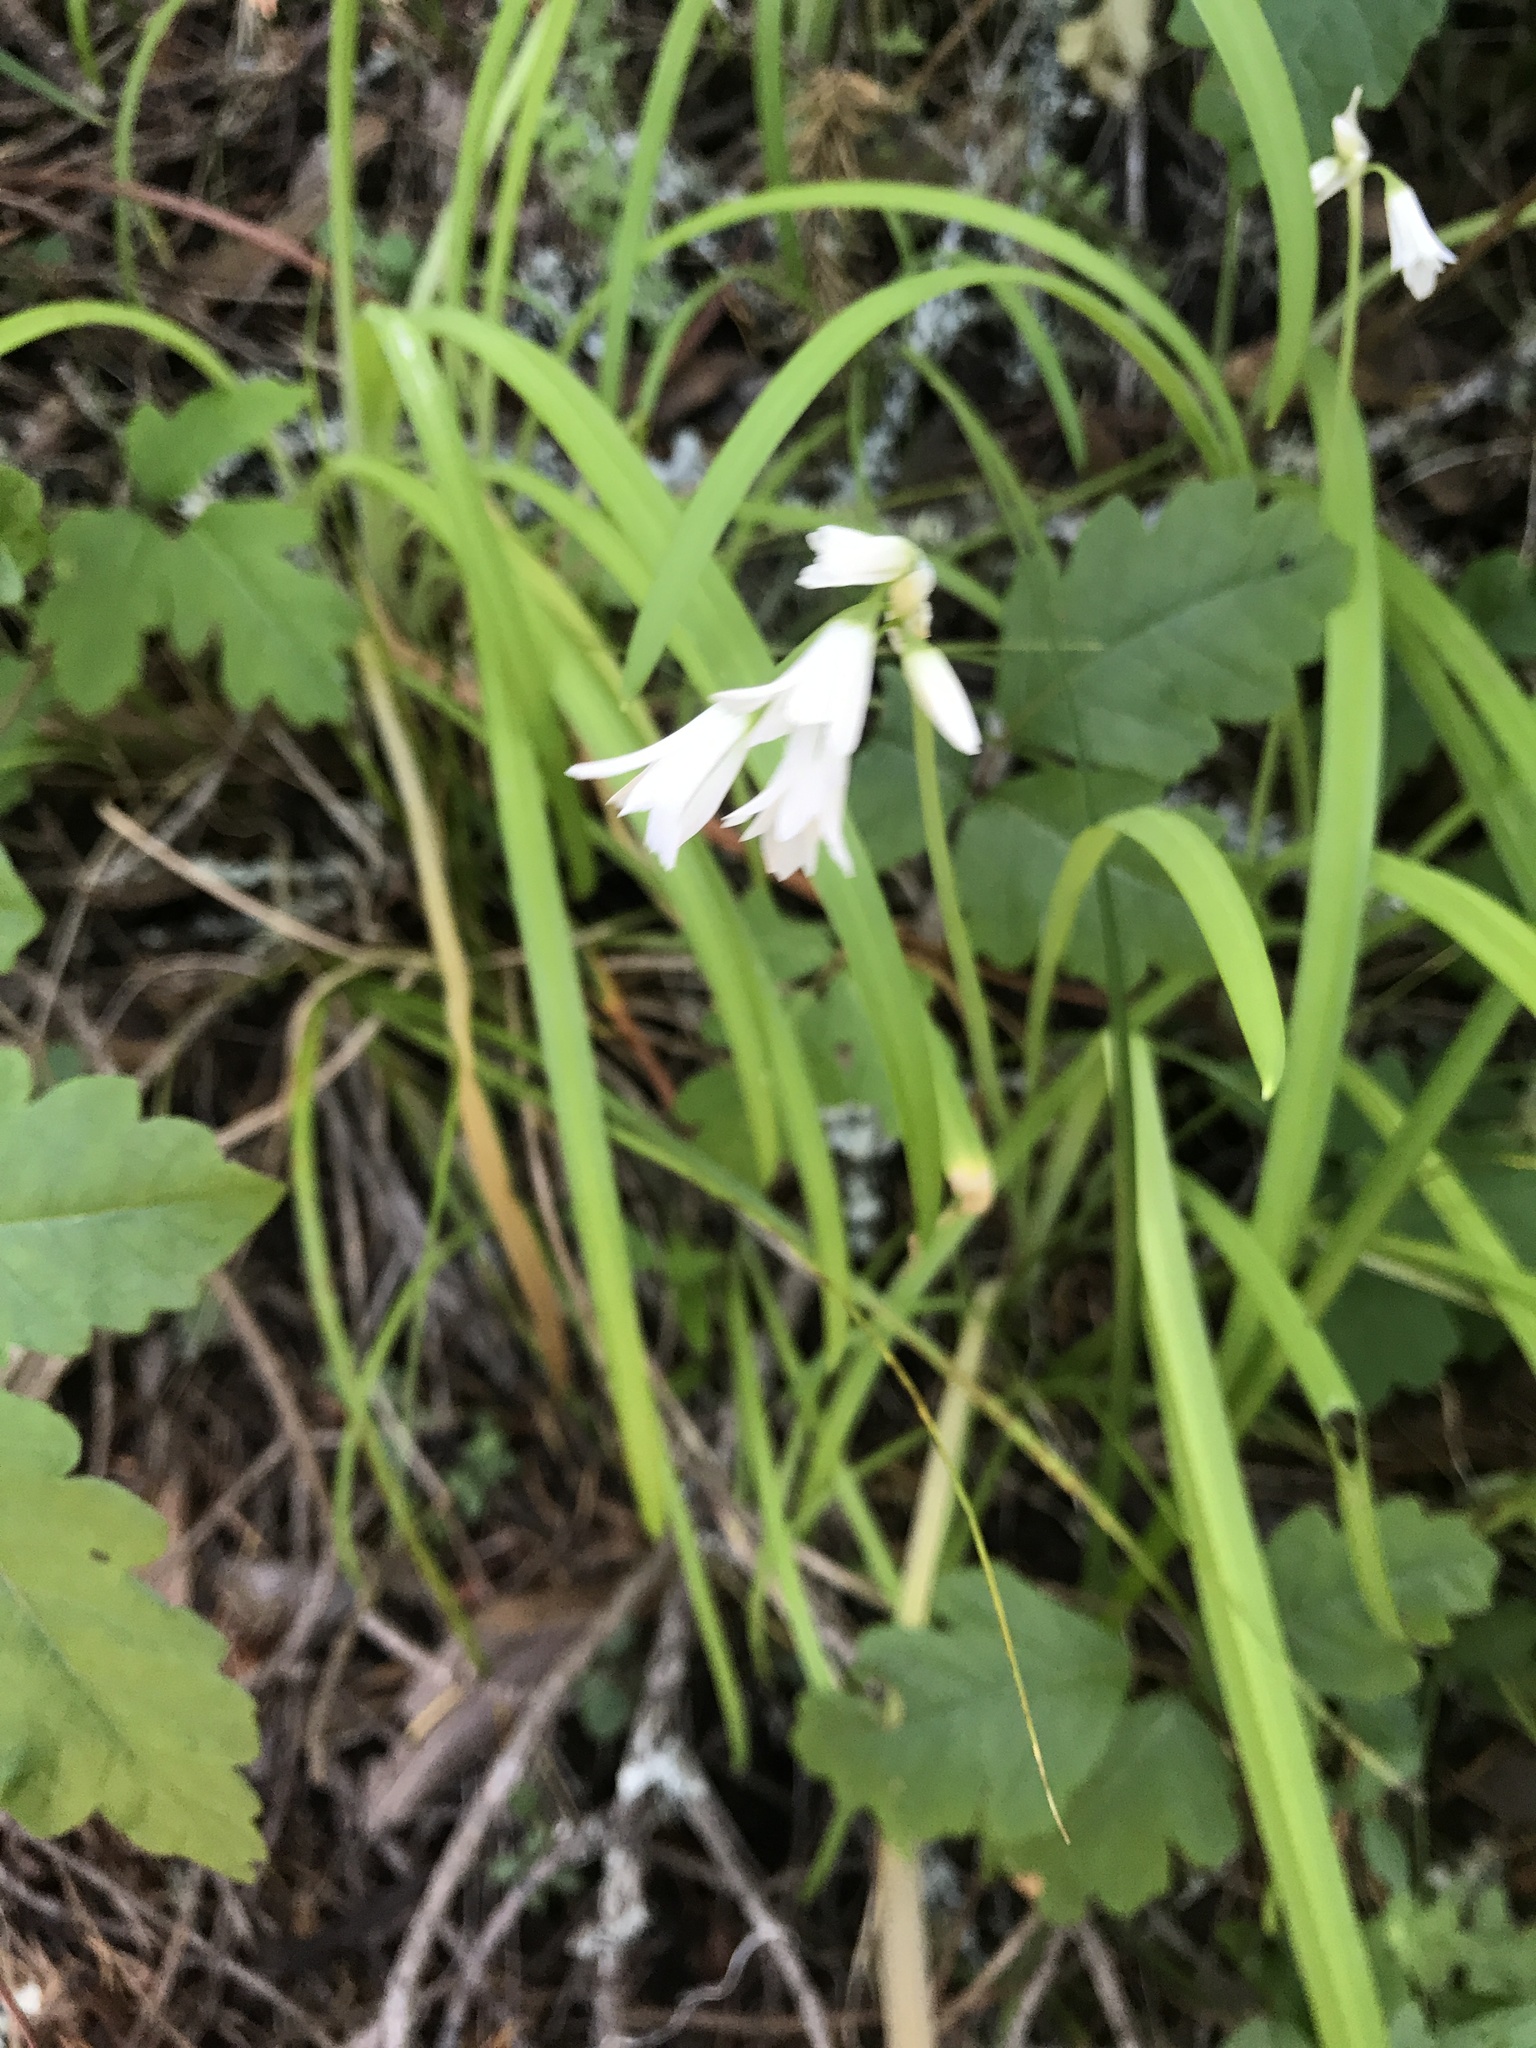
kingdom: Plantae
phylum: Tracheophyta
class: Liliopsida
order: Asparagales
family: Amaryllidaceae
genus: Allium
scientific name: Allium triquetrum
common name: Three-cornered garlic
